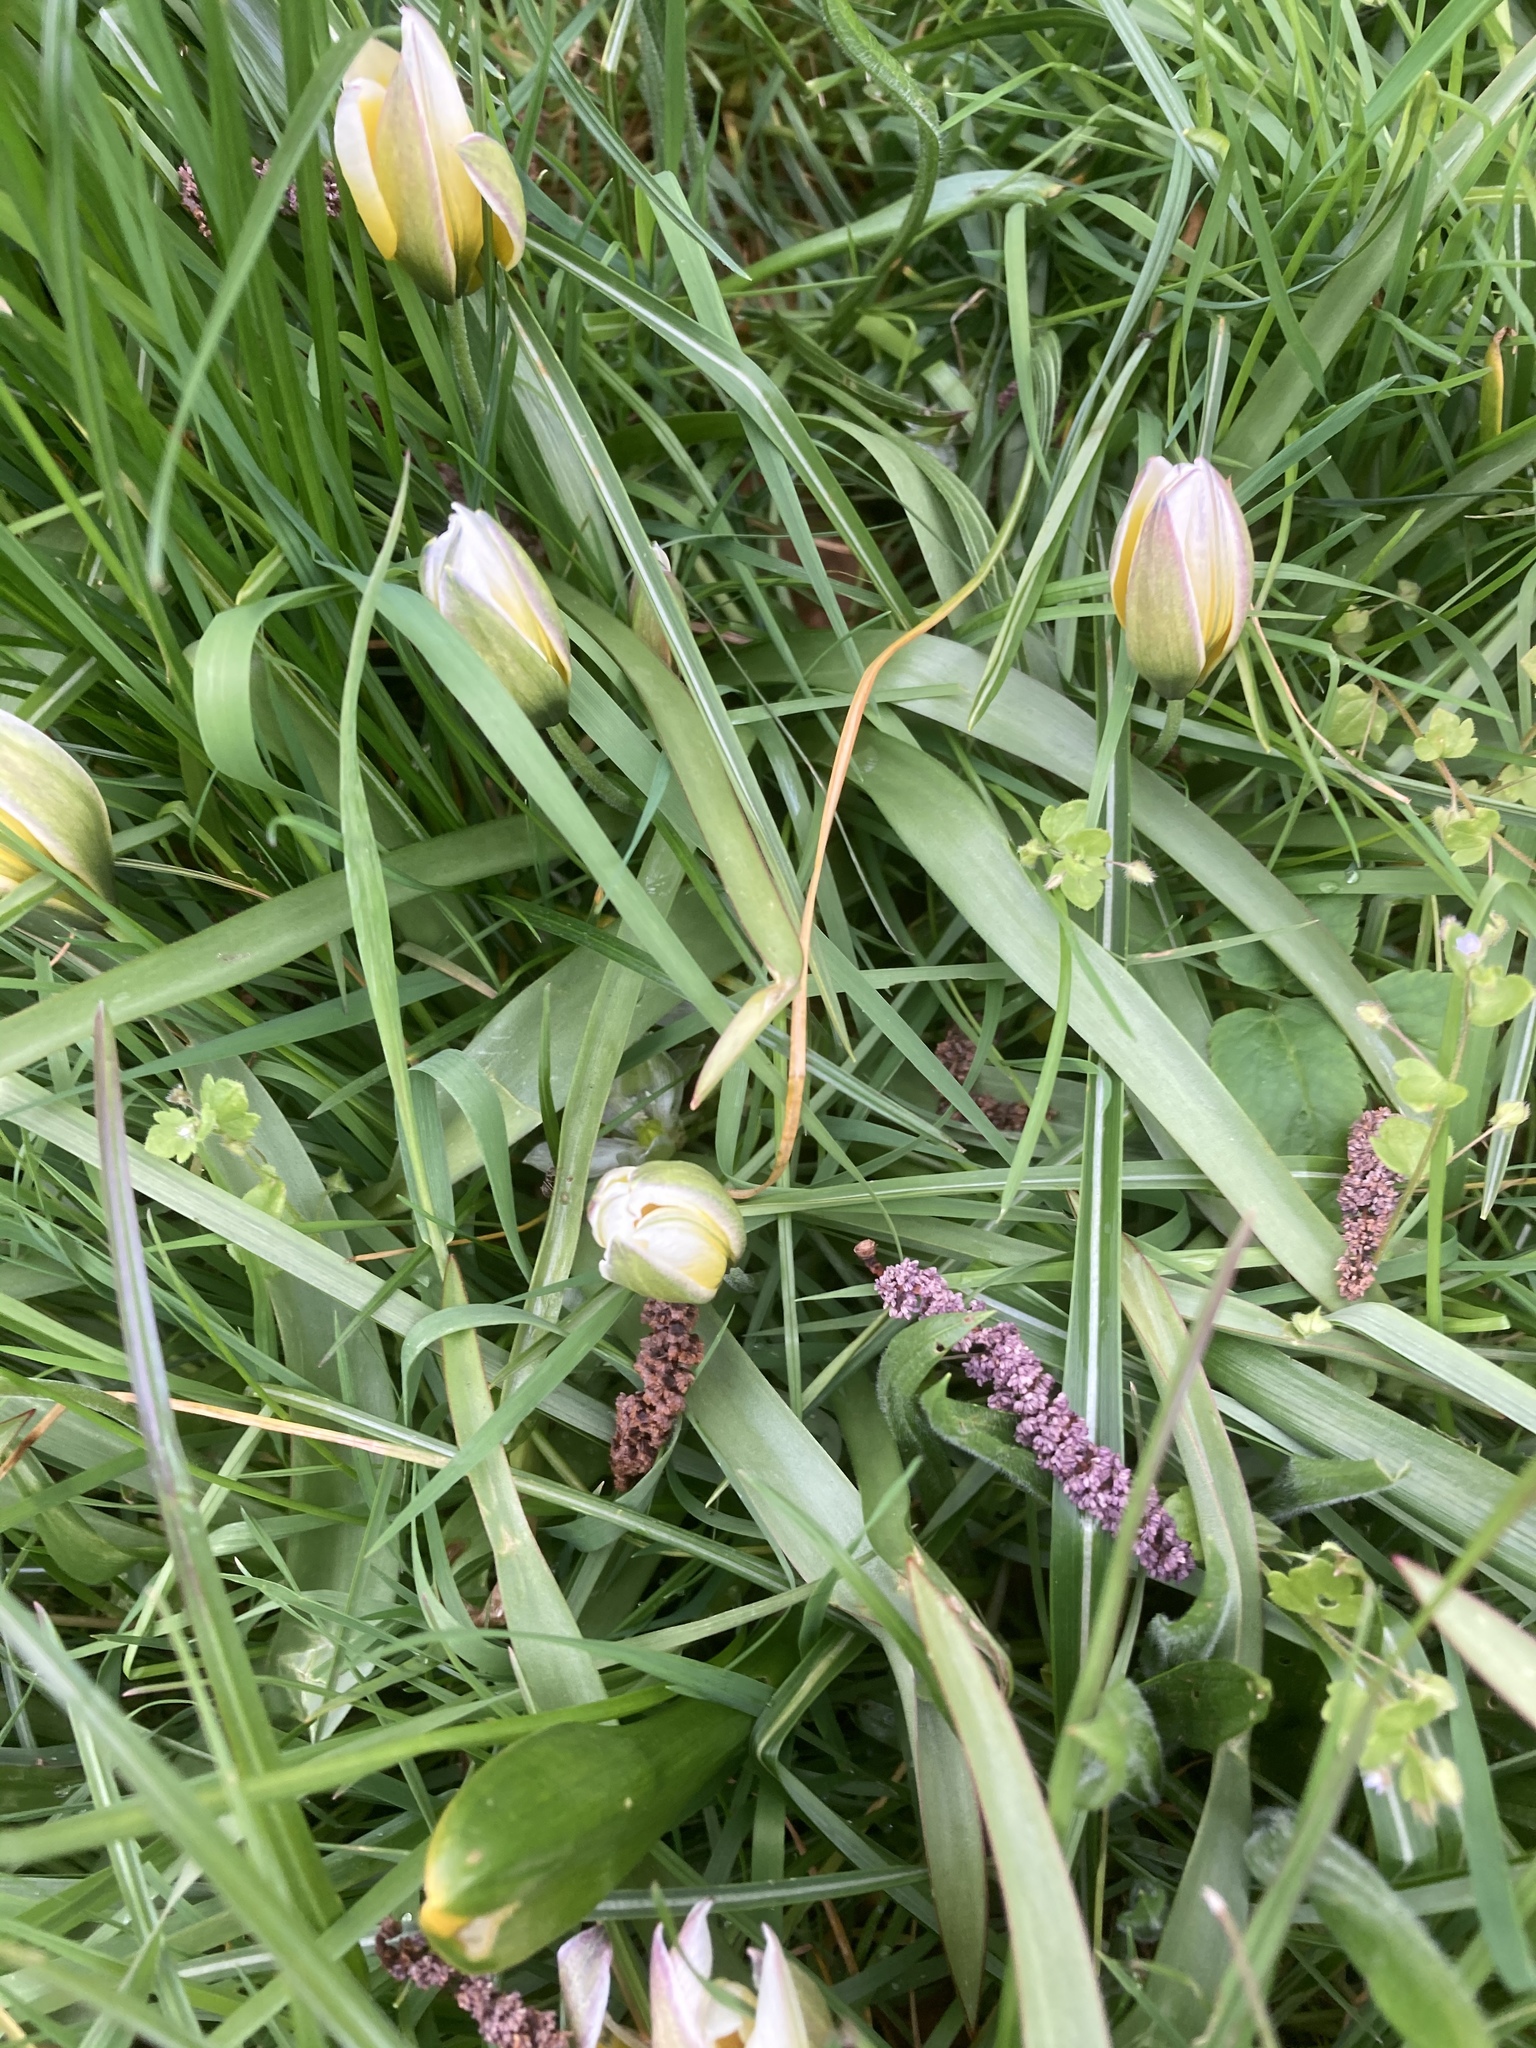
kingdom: Plantae
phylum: Tracheophyta
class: Liliopsida
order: Liliales
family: Liliaceae
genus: Tulipa
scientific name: Tulipa sylvestris
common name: Wild tulip
